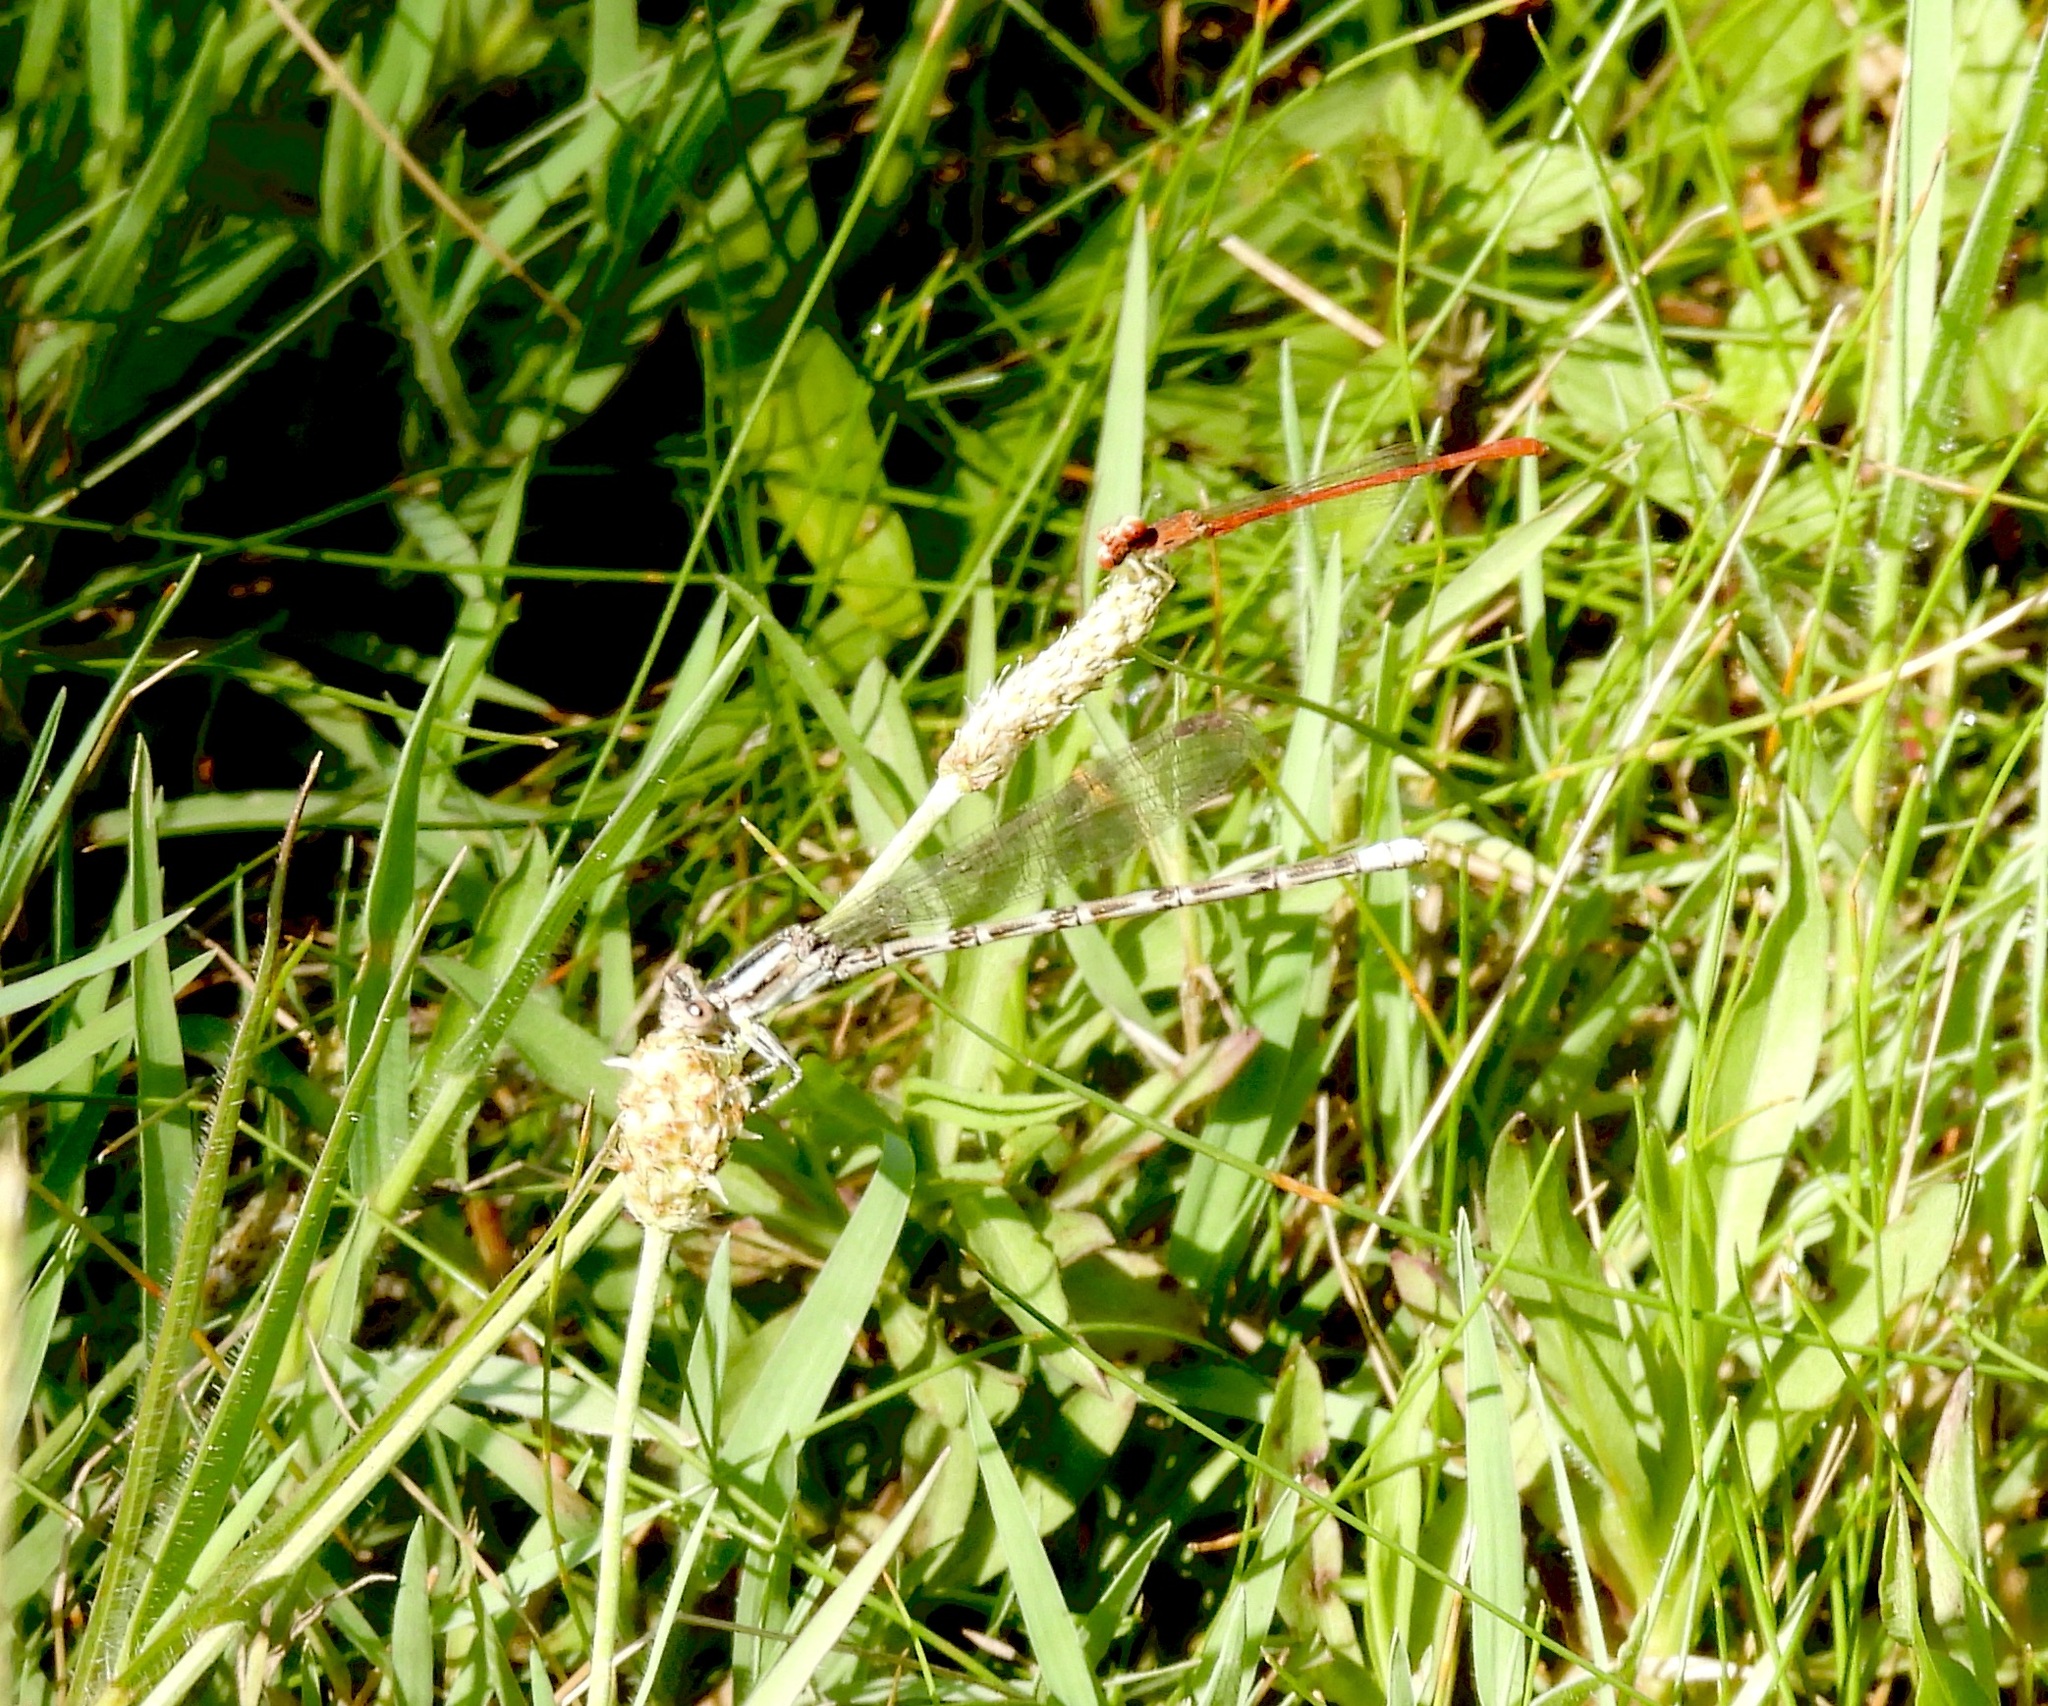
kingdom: Animalia
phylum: Arthropoda
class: Insecta
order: Odonata
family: Coenagrionidae
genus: Telebasis
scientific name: Telebasis salva
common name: Desert firetail
